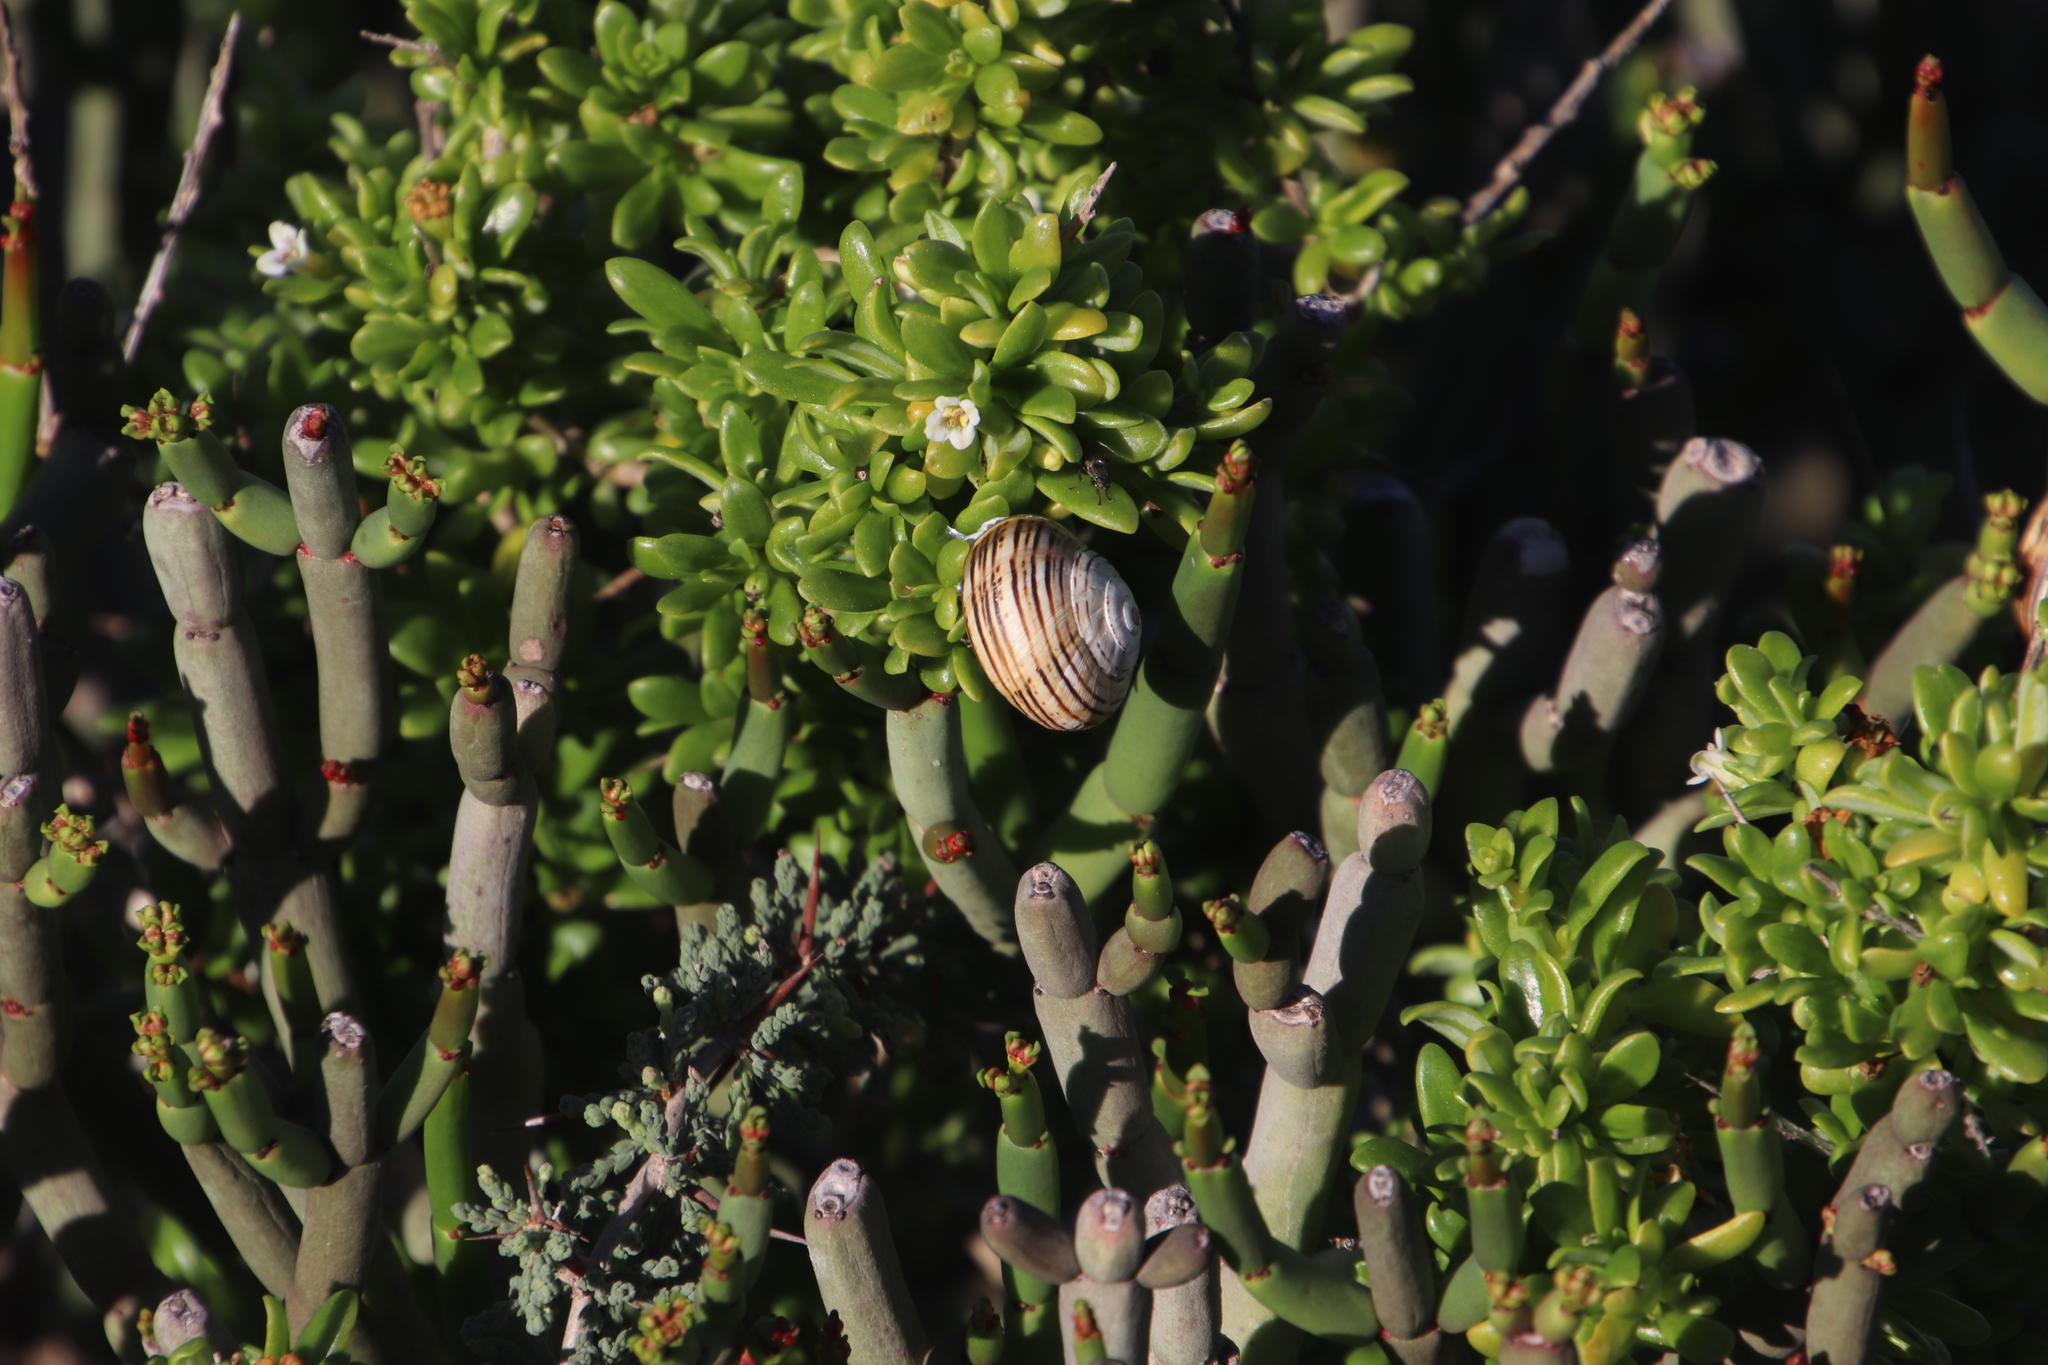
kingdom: Animalia
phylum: Mollusca
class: Gastropoda
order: Stylommatophora
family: Helicidae
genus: Theba
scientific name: Theba pisana
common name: White snail
